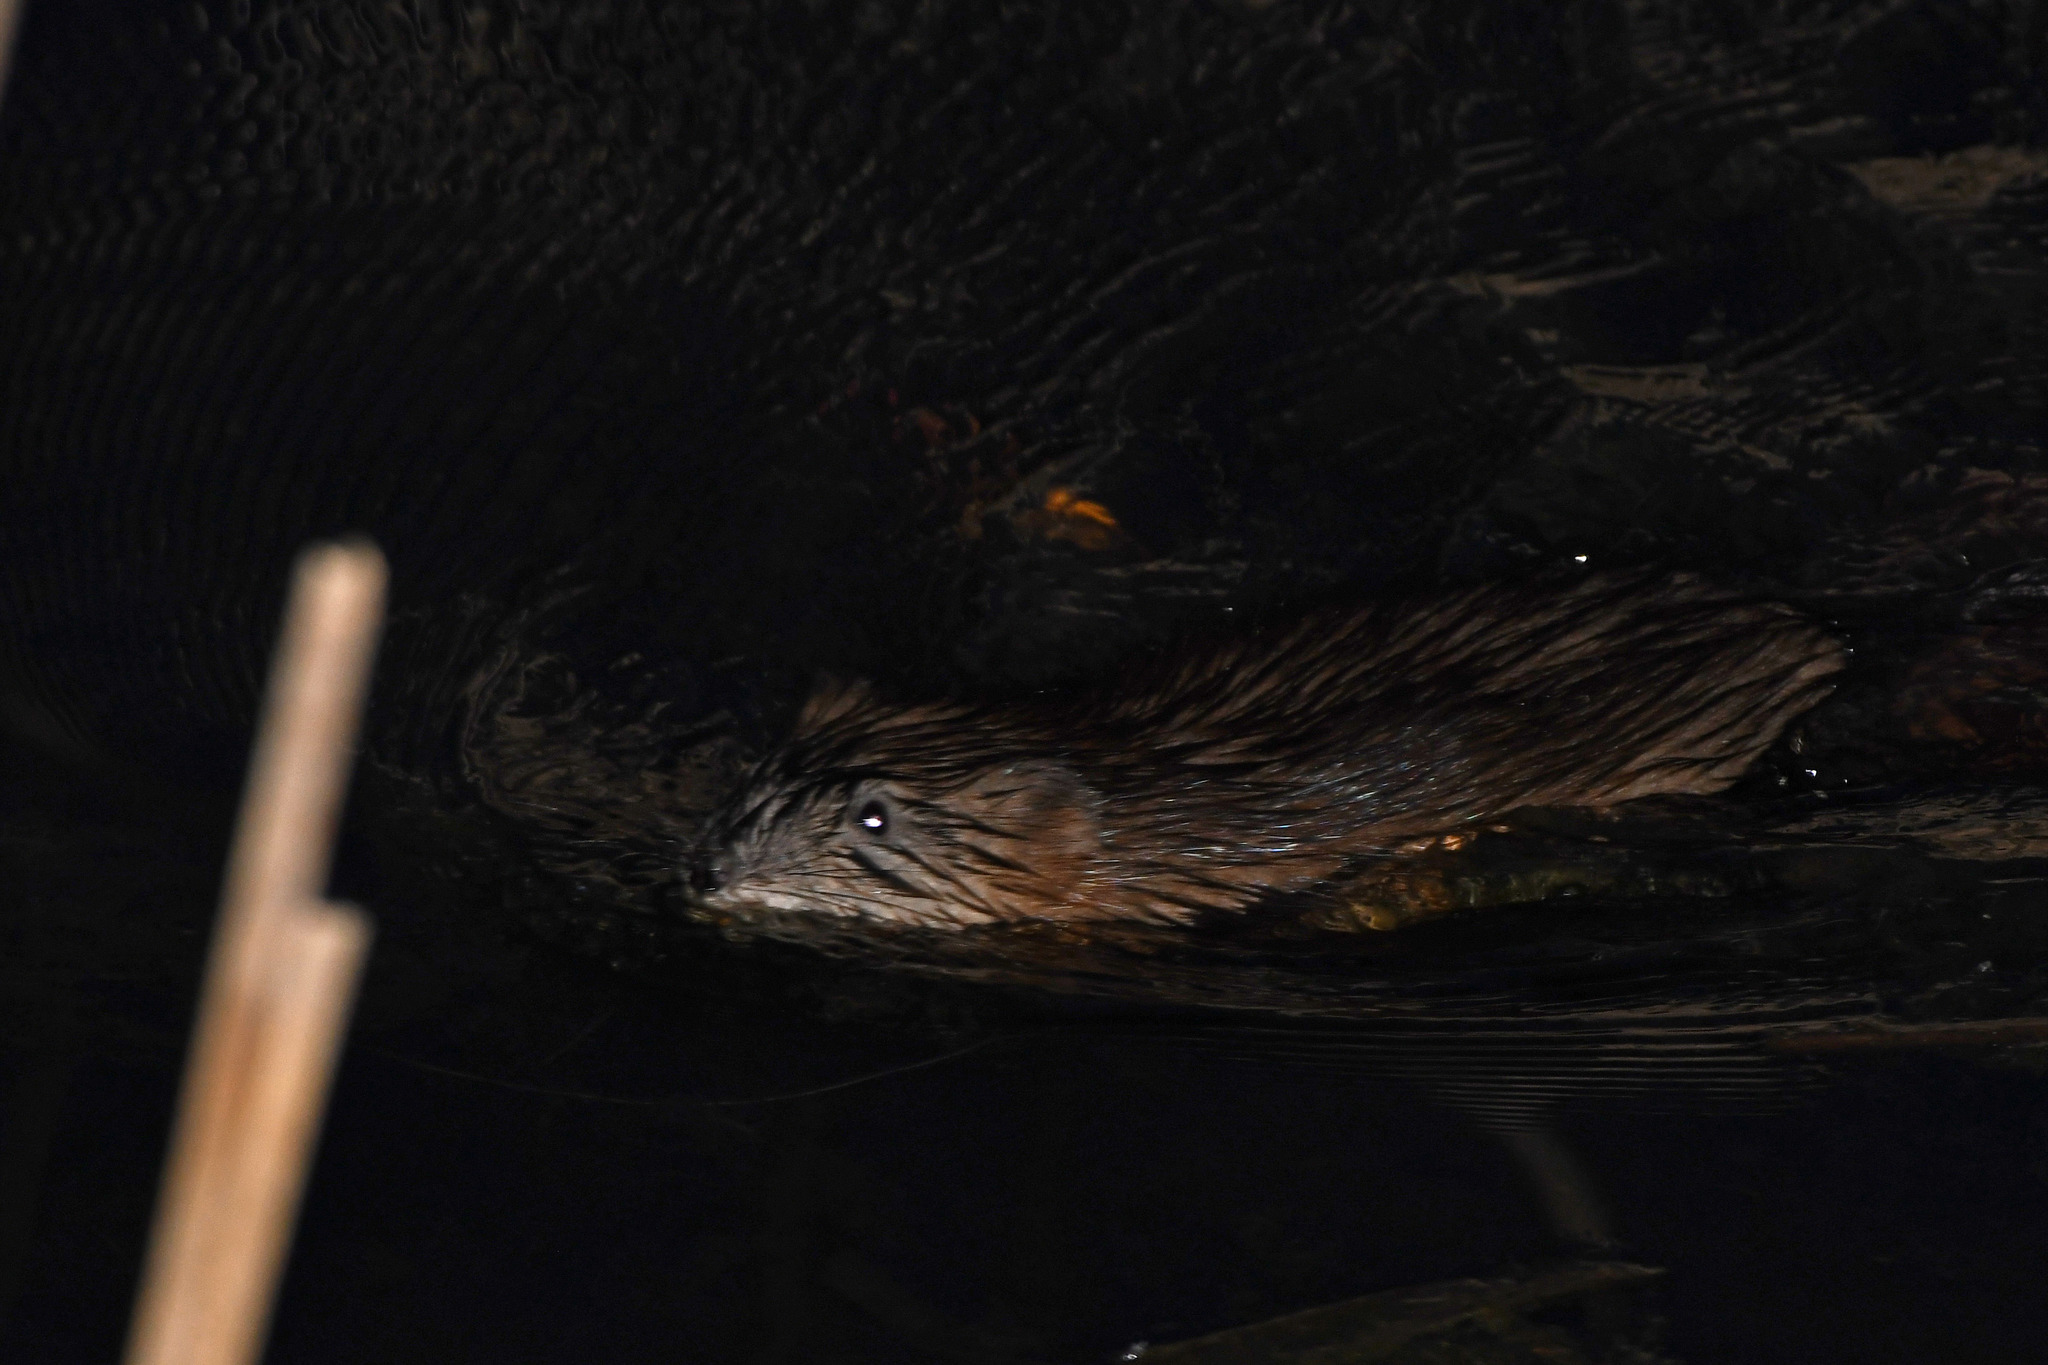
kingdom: Animalia
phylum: Chordata
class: Mammalia
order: Rodentia
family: Cricetidae
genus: Ondatra
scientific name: Ondatra zibethicus
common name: Muskrat
